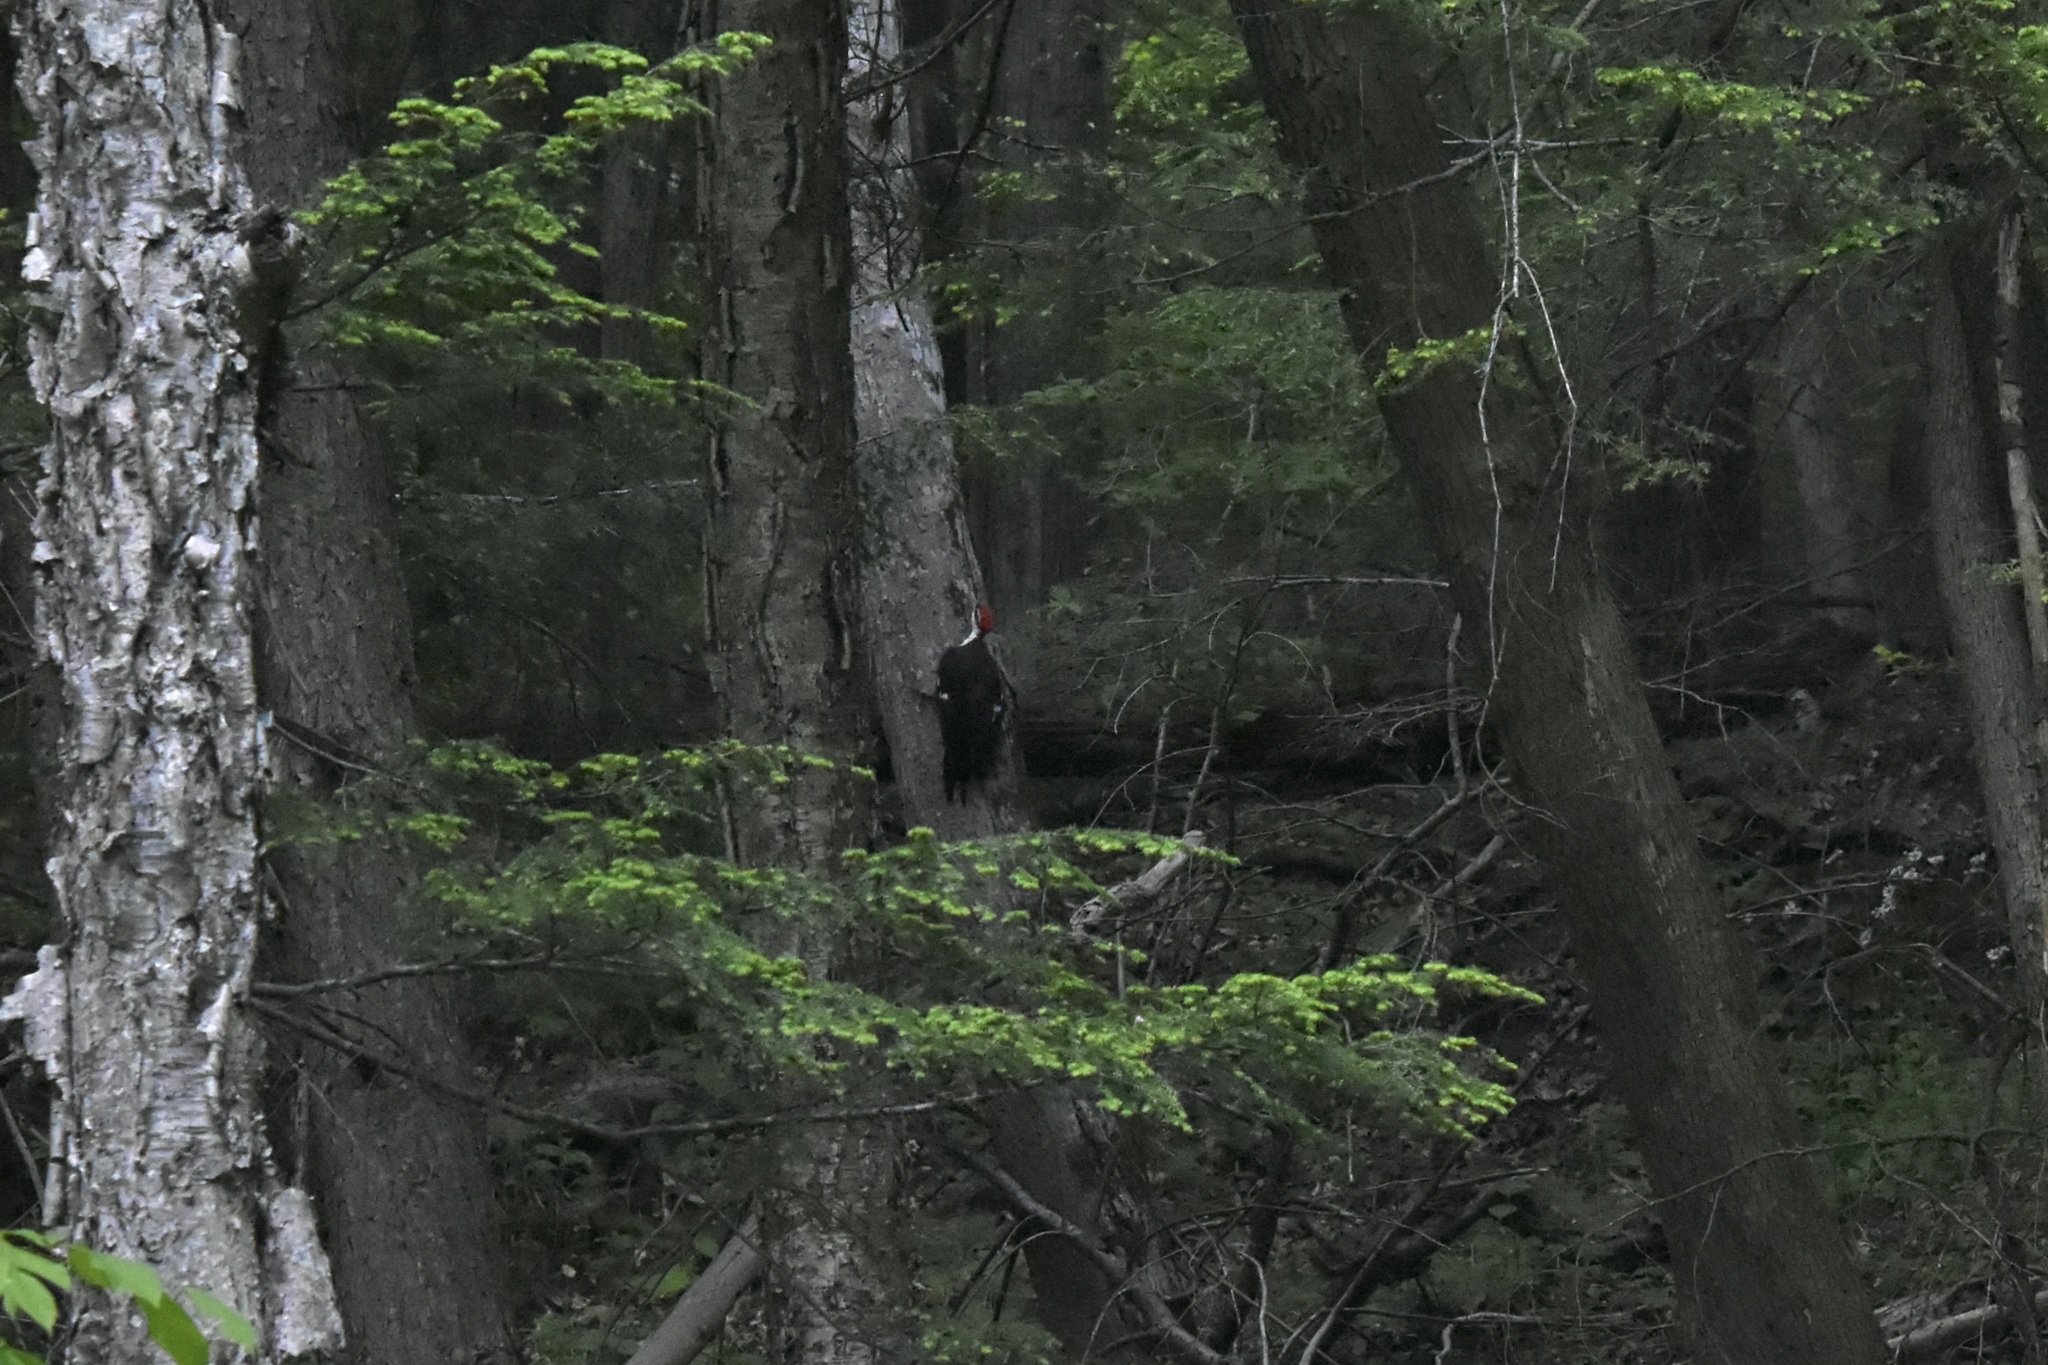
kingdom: Animalia
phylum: Chordata
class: Aves
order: Piciformes
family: Picidae
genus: Dryocopus
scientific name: Dryocopus pileatus
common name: Pileated woodpecker
